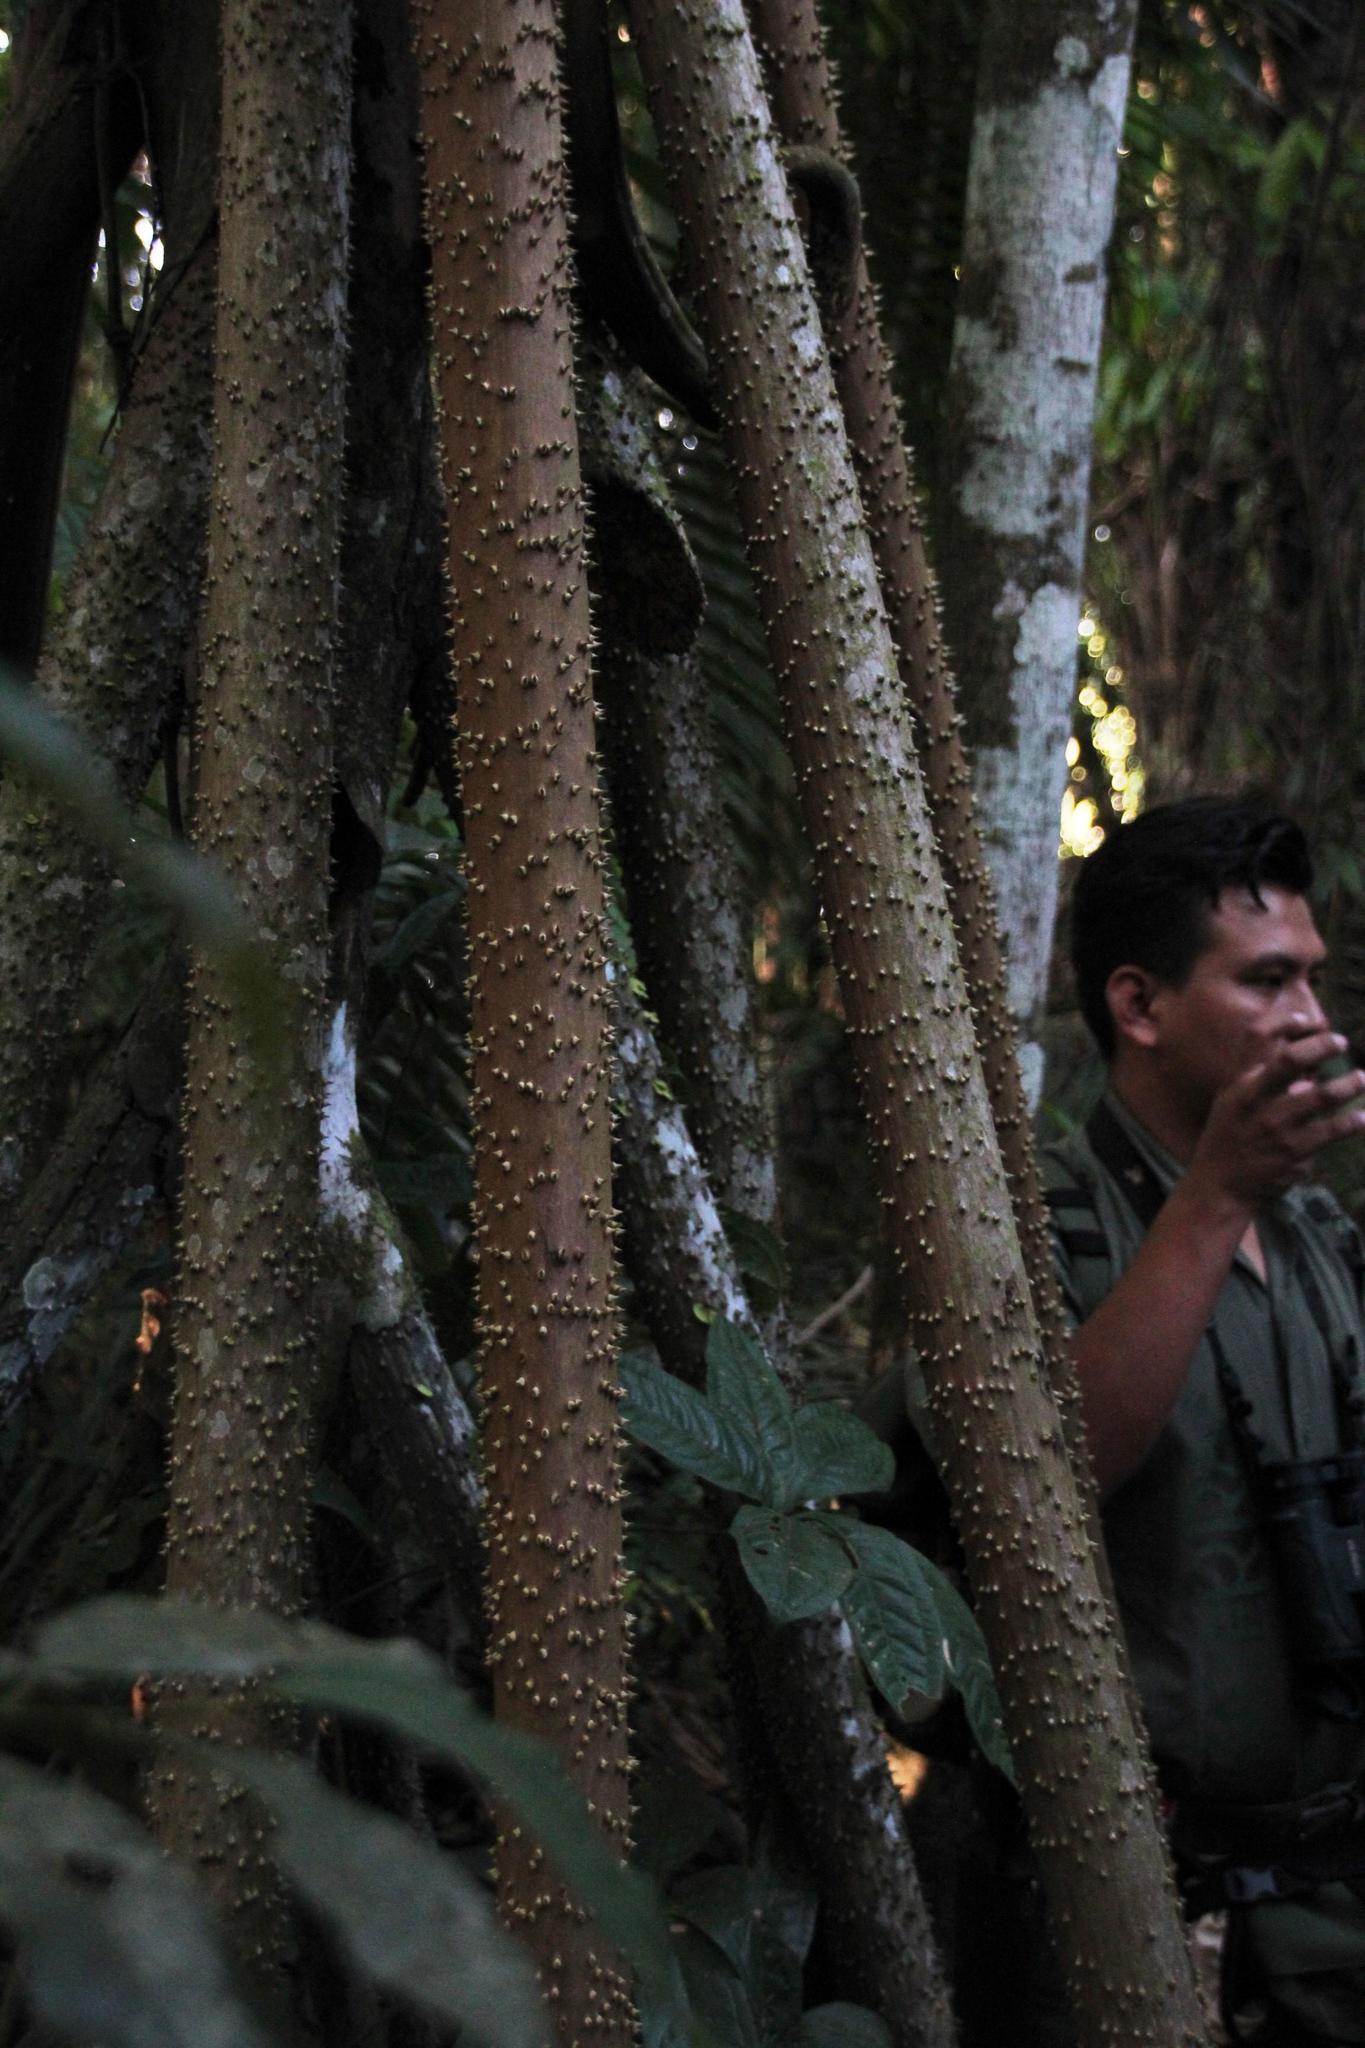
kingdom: Plantae
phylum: Tracheophyta
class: Liliopsida
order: Arecales
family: Arecaceae
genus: Socratea
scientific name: Socratea exorrhiza
